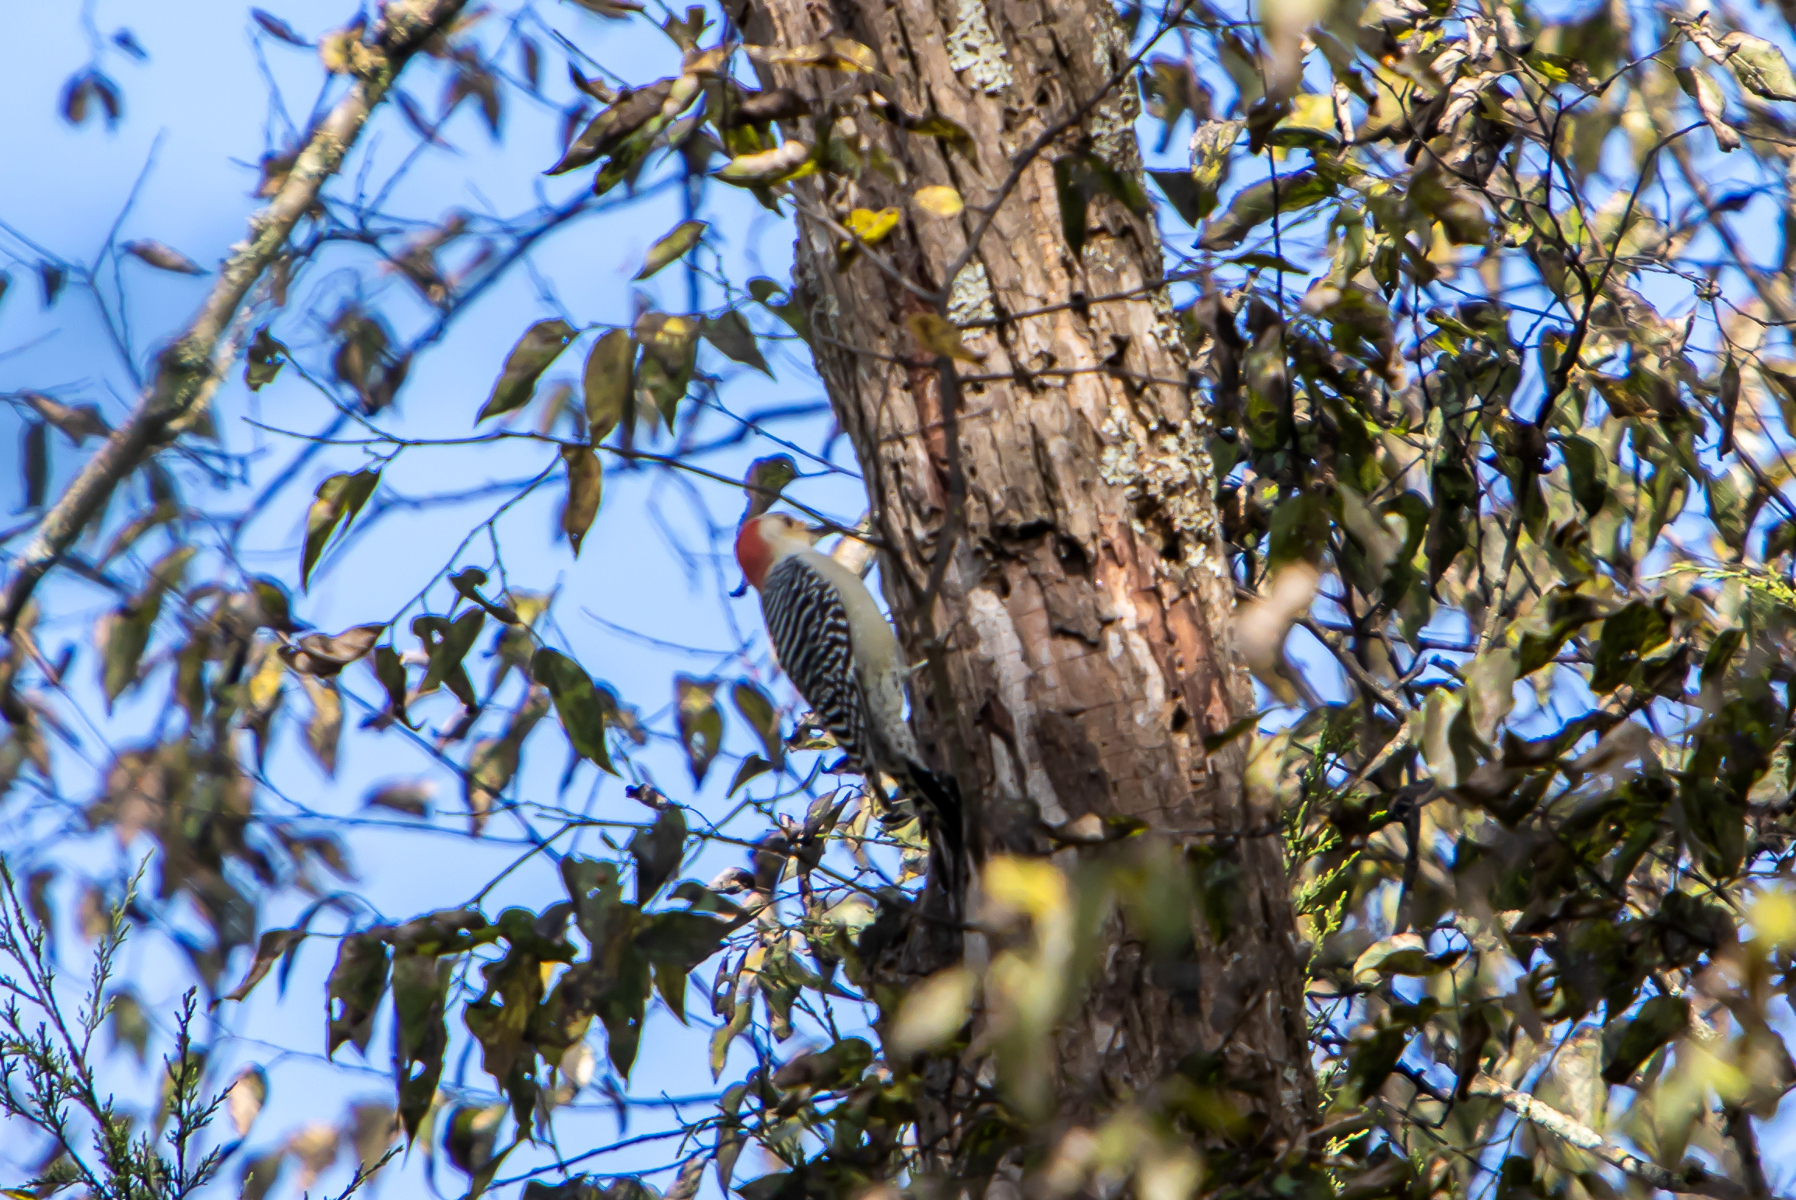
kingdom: Animalia
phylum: Chordata
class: Aves
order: Piciformes
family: Picidae
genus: Melanerpes
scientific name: Melanerpes carolinus
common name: Red-bellied woodpecker
